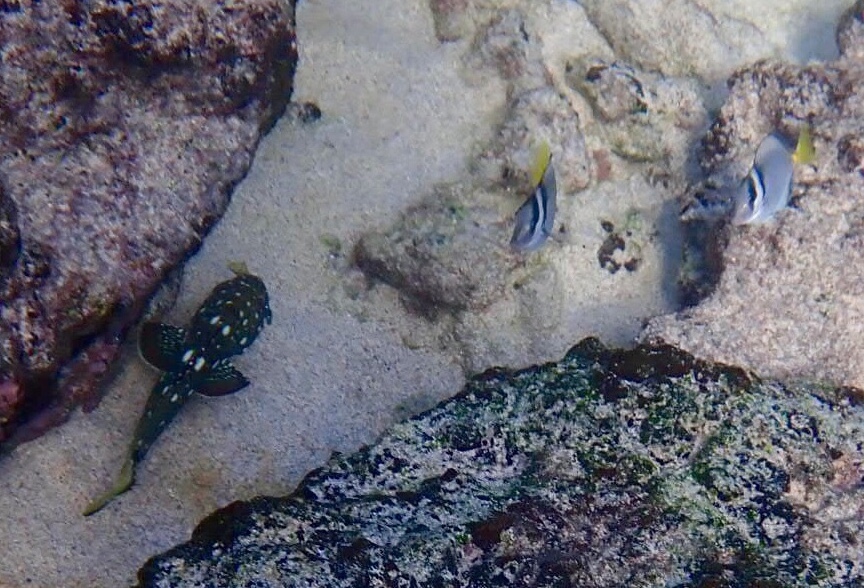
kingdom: Animalia
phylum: Chordata
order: Perciformes
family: Serranidae
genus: Epinephelus
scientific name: Epinephelus labriformis
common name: Flag cabrilla
